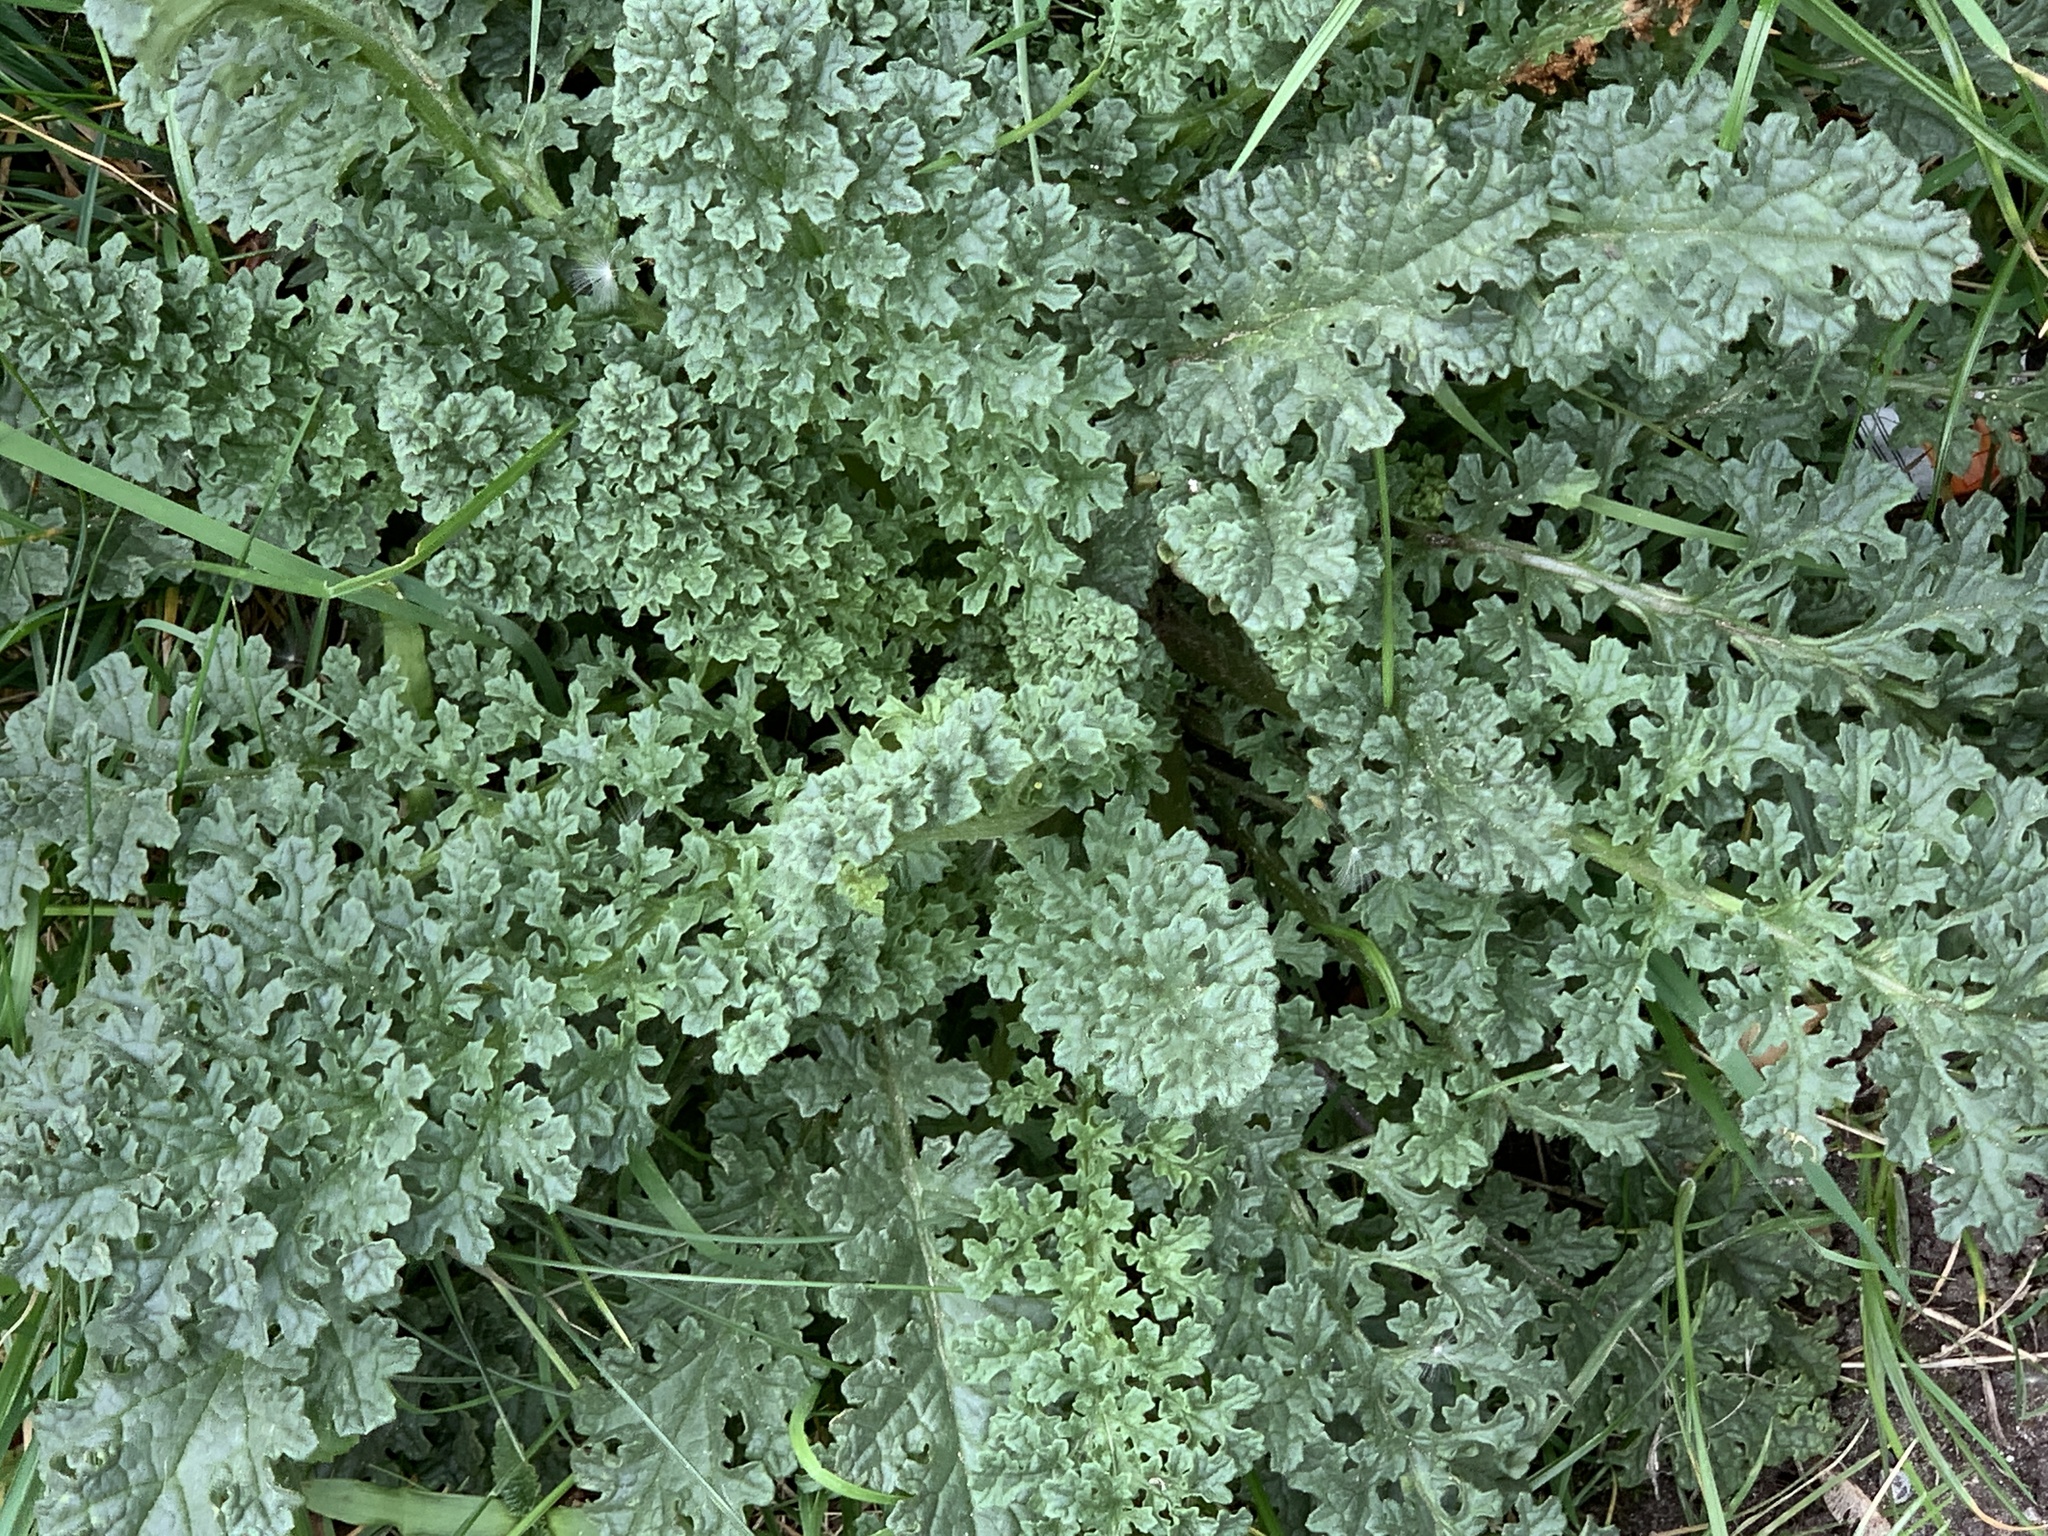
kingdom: Plantae
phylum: Tracheophyta
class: Magnoliopsida
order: Asterales
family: Asteraceae
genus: Jacobaea
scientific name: Jacobaea vulgaris
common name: Stinking willie
